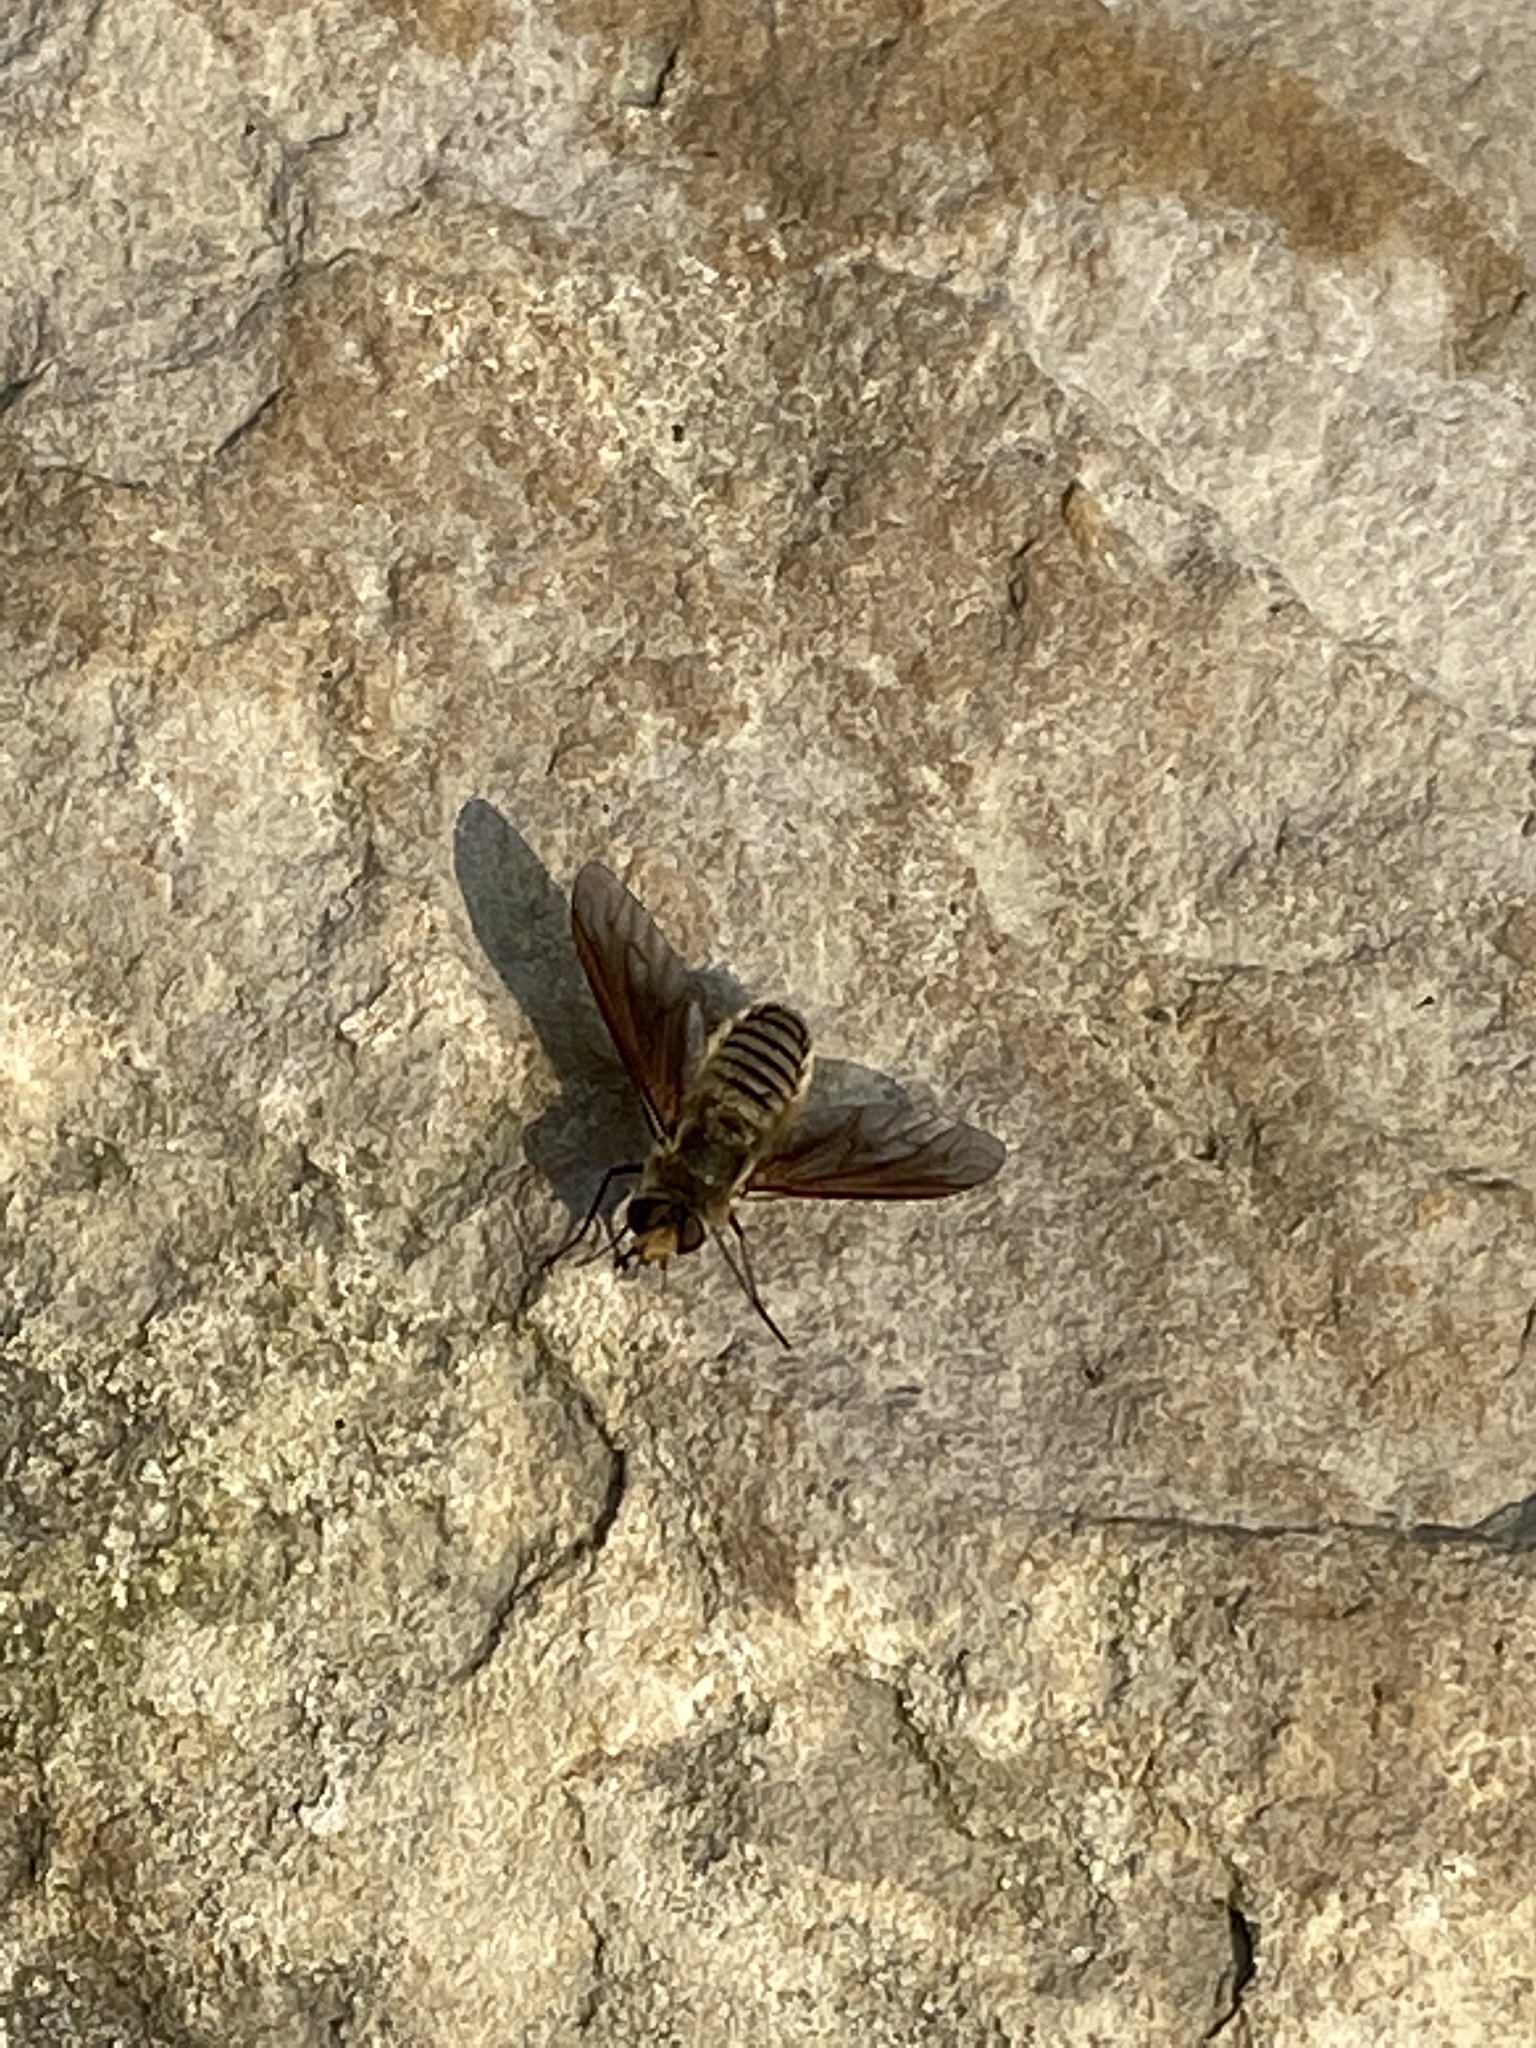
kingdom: Animalia
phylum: Arthropoda
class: Insecta
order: Diptera
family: Bombyliidae
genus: Poecilanthrax
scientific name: Poecilanthrax lucifer
